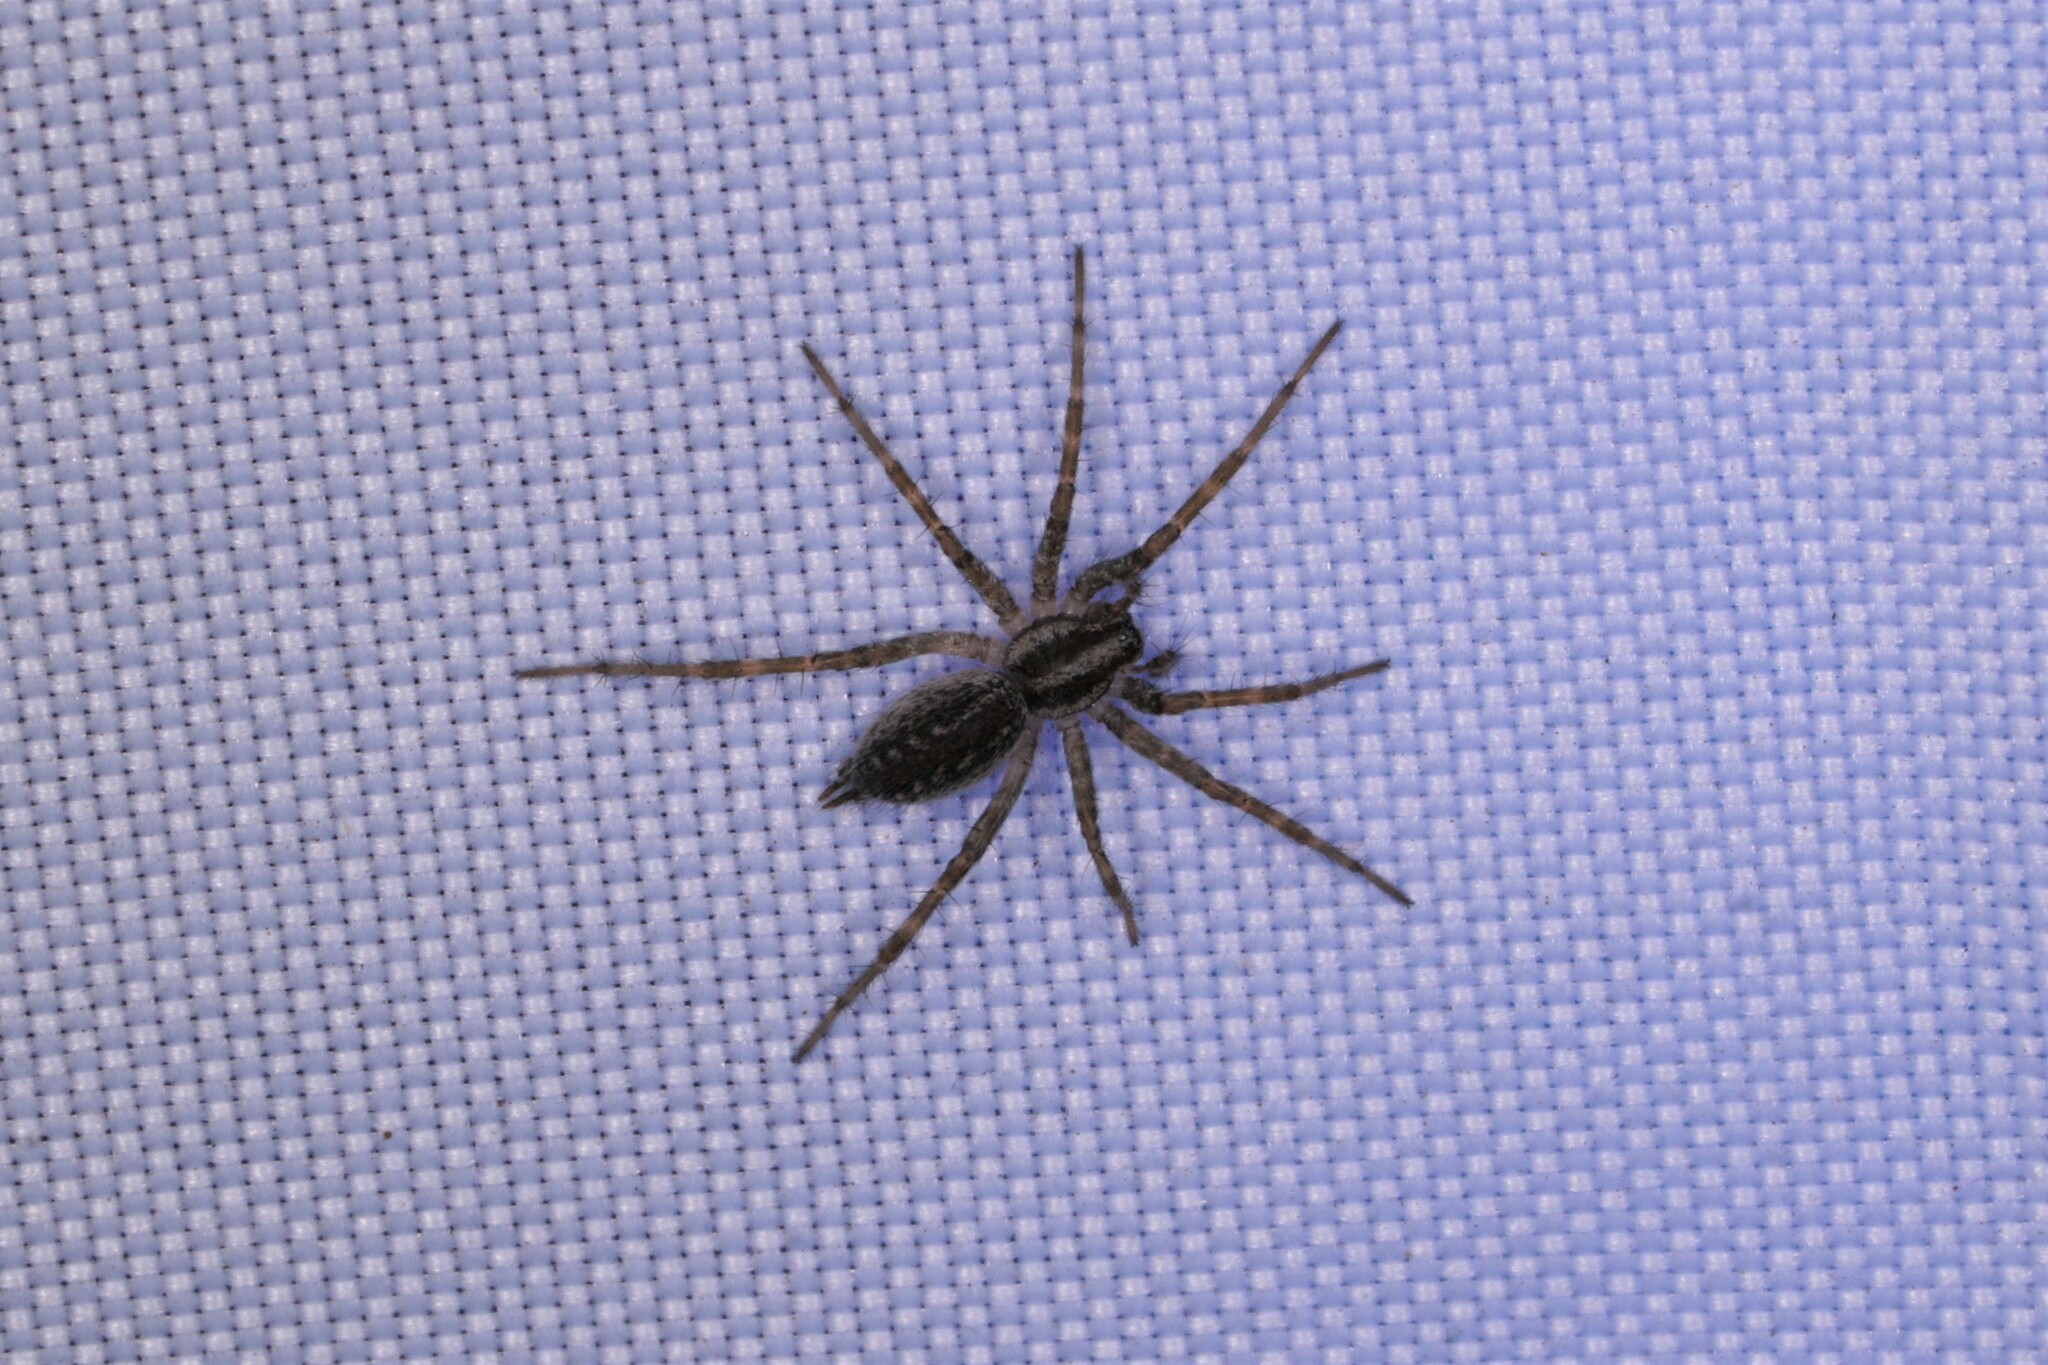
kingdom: Animalia
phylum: Arthropoda
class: Arachnida
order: Araneae
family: Agelenidae
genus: Agelenopsis
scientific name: Agelenopsis
